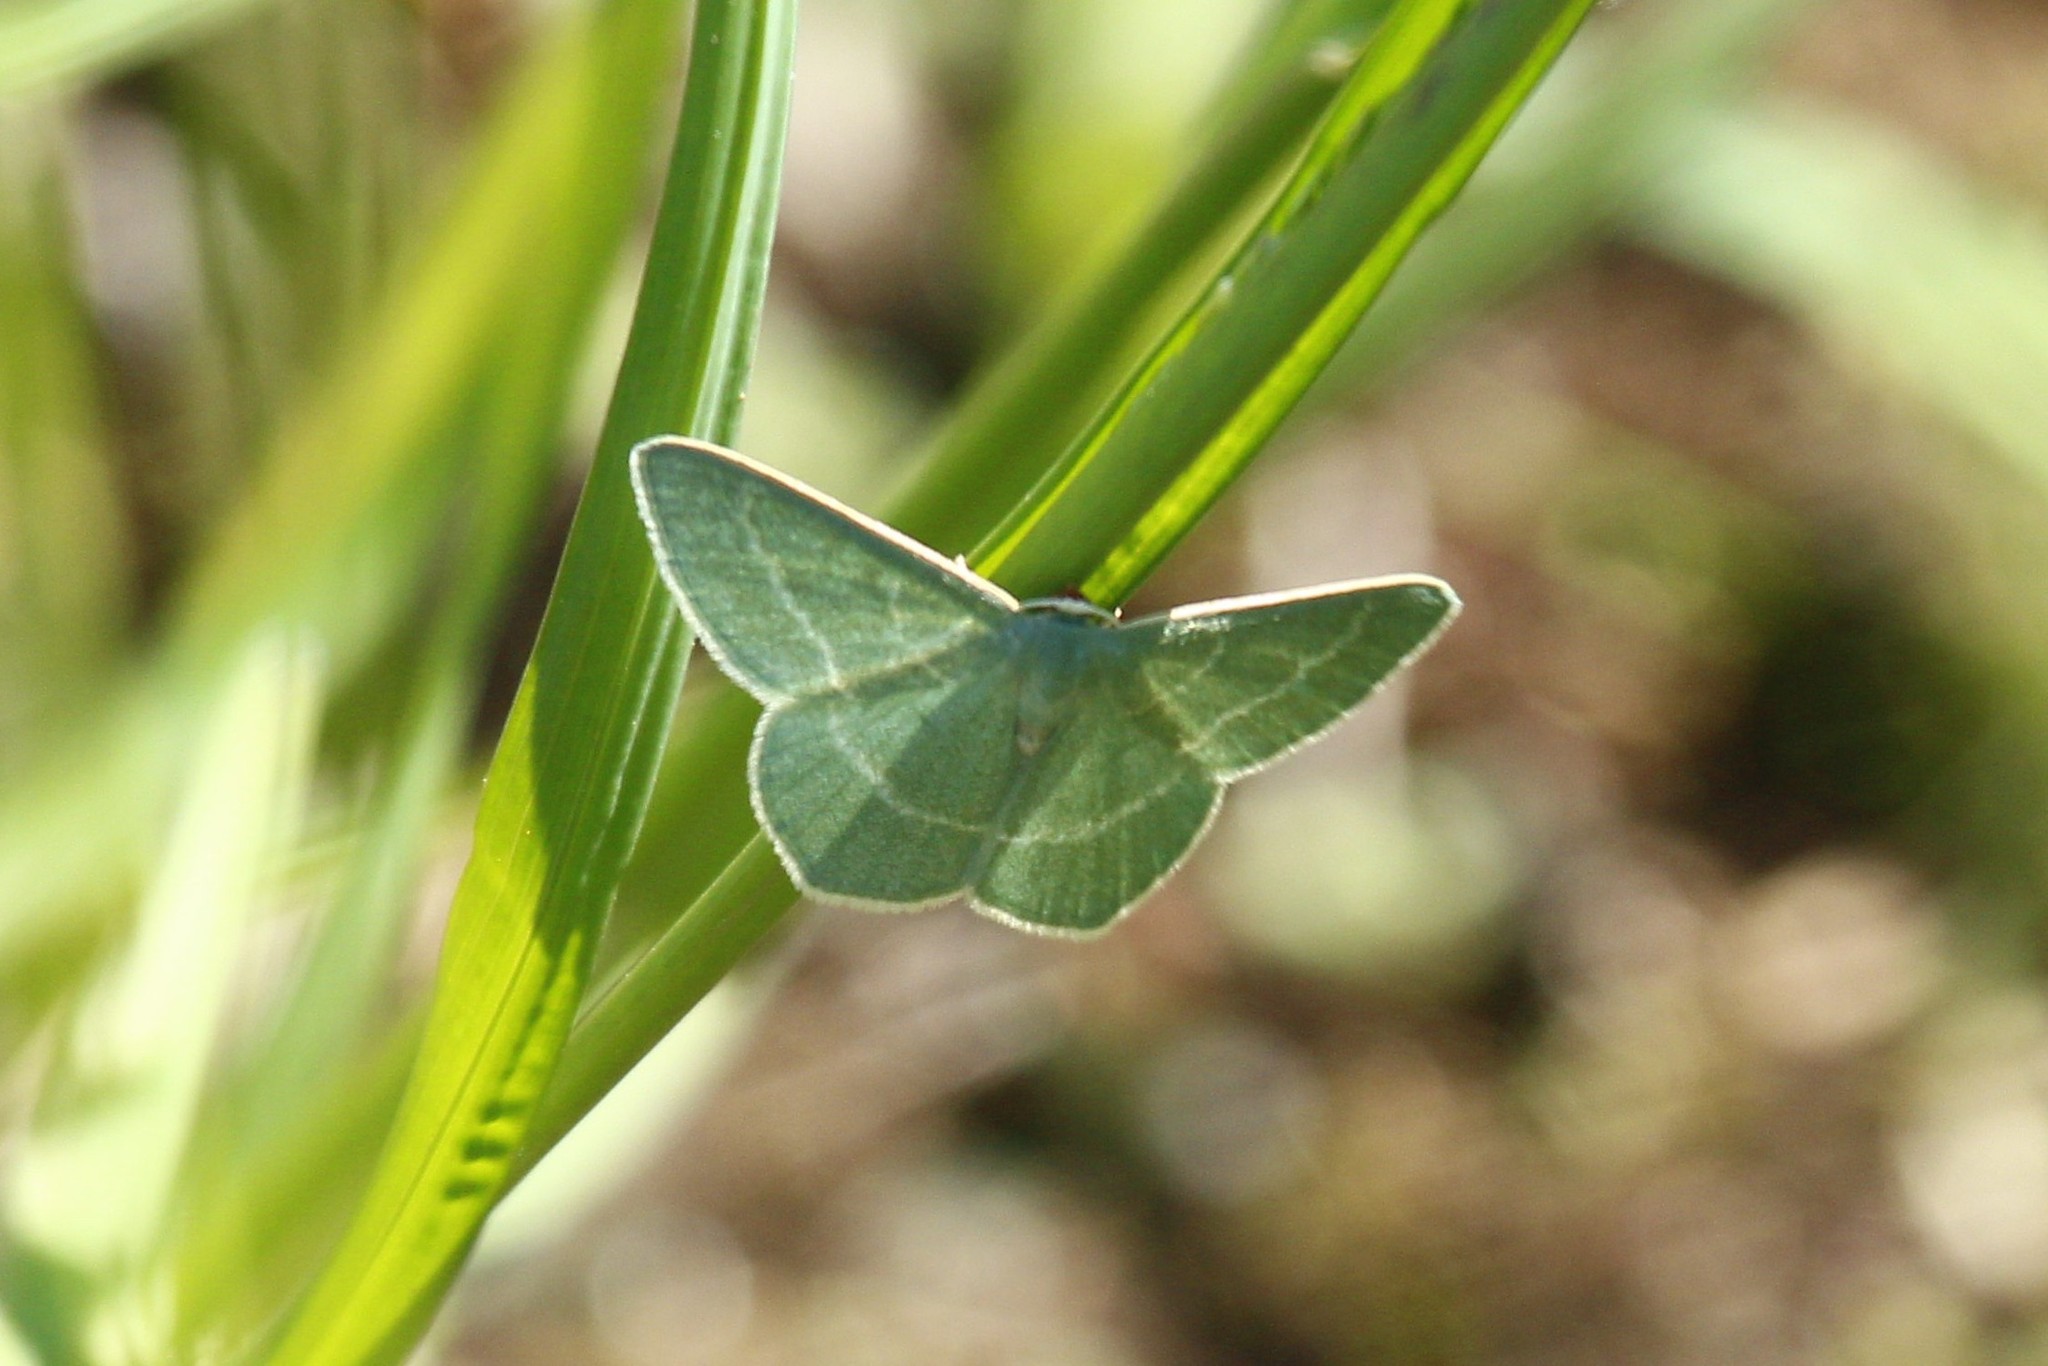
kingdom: Animalia
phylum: Arthropoda
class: Insecta
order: Lepidoptera
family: Geometridae
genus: Chlorissa
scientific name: Chlorissa viridata
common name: Small grass emerald
